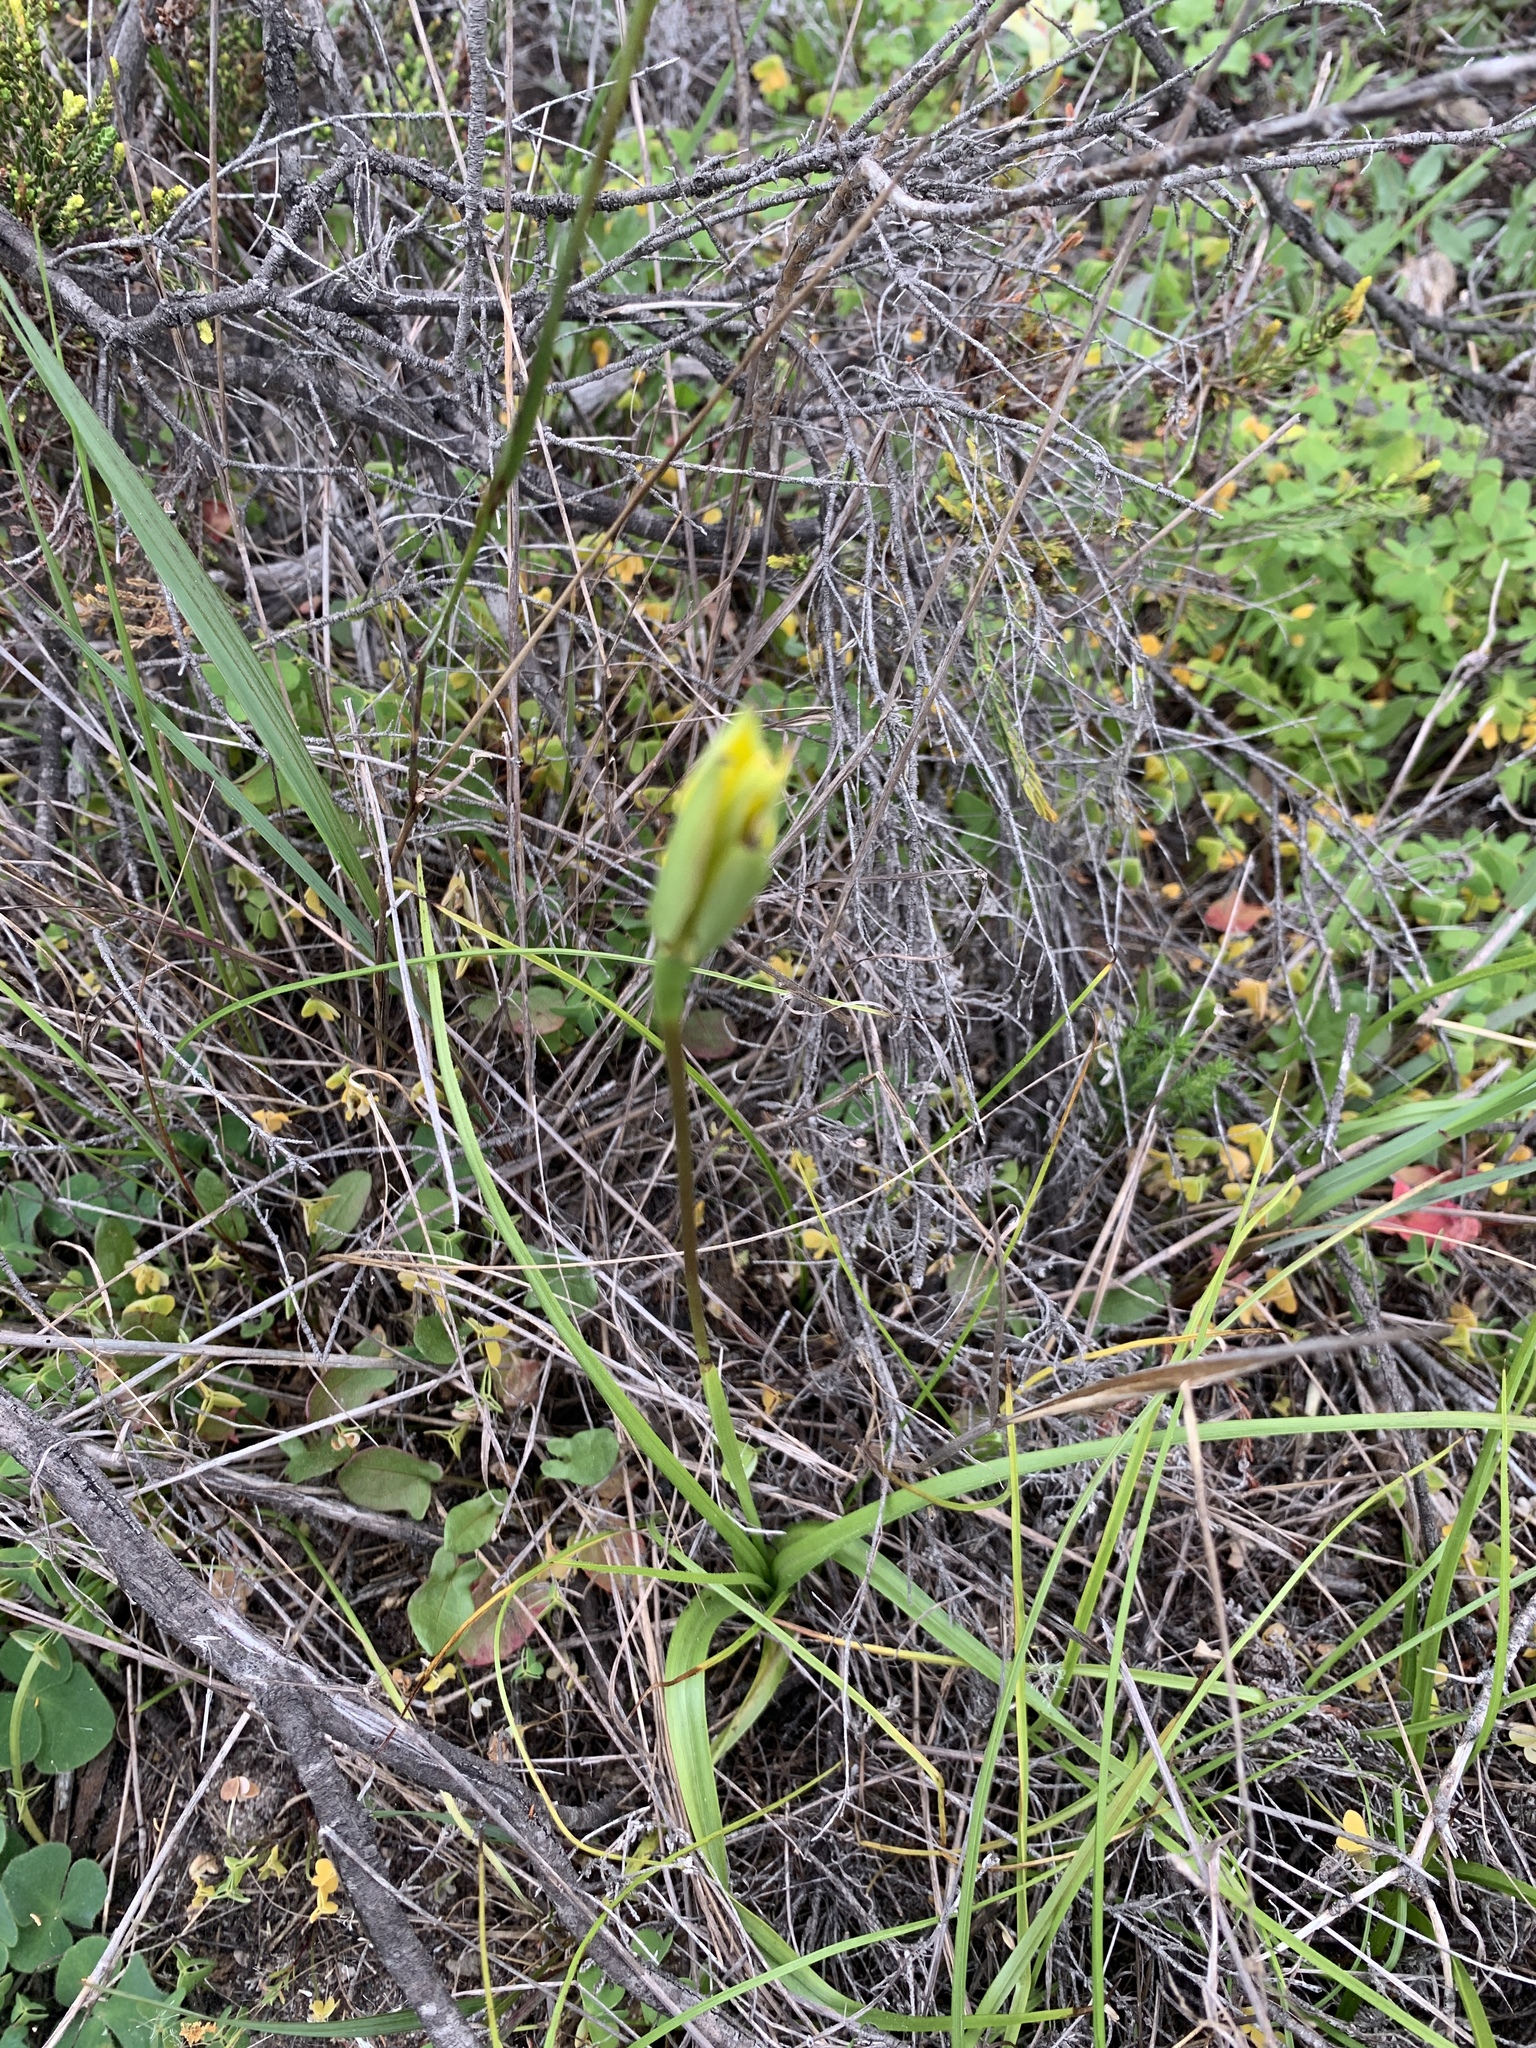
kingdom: Plantae
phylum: Tracheophyta
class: Liliopsida
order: Asparagales
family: Hypoxidaceae
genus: Pauridia
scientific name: Pauridia capensis
